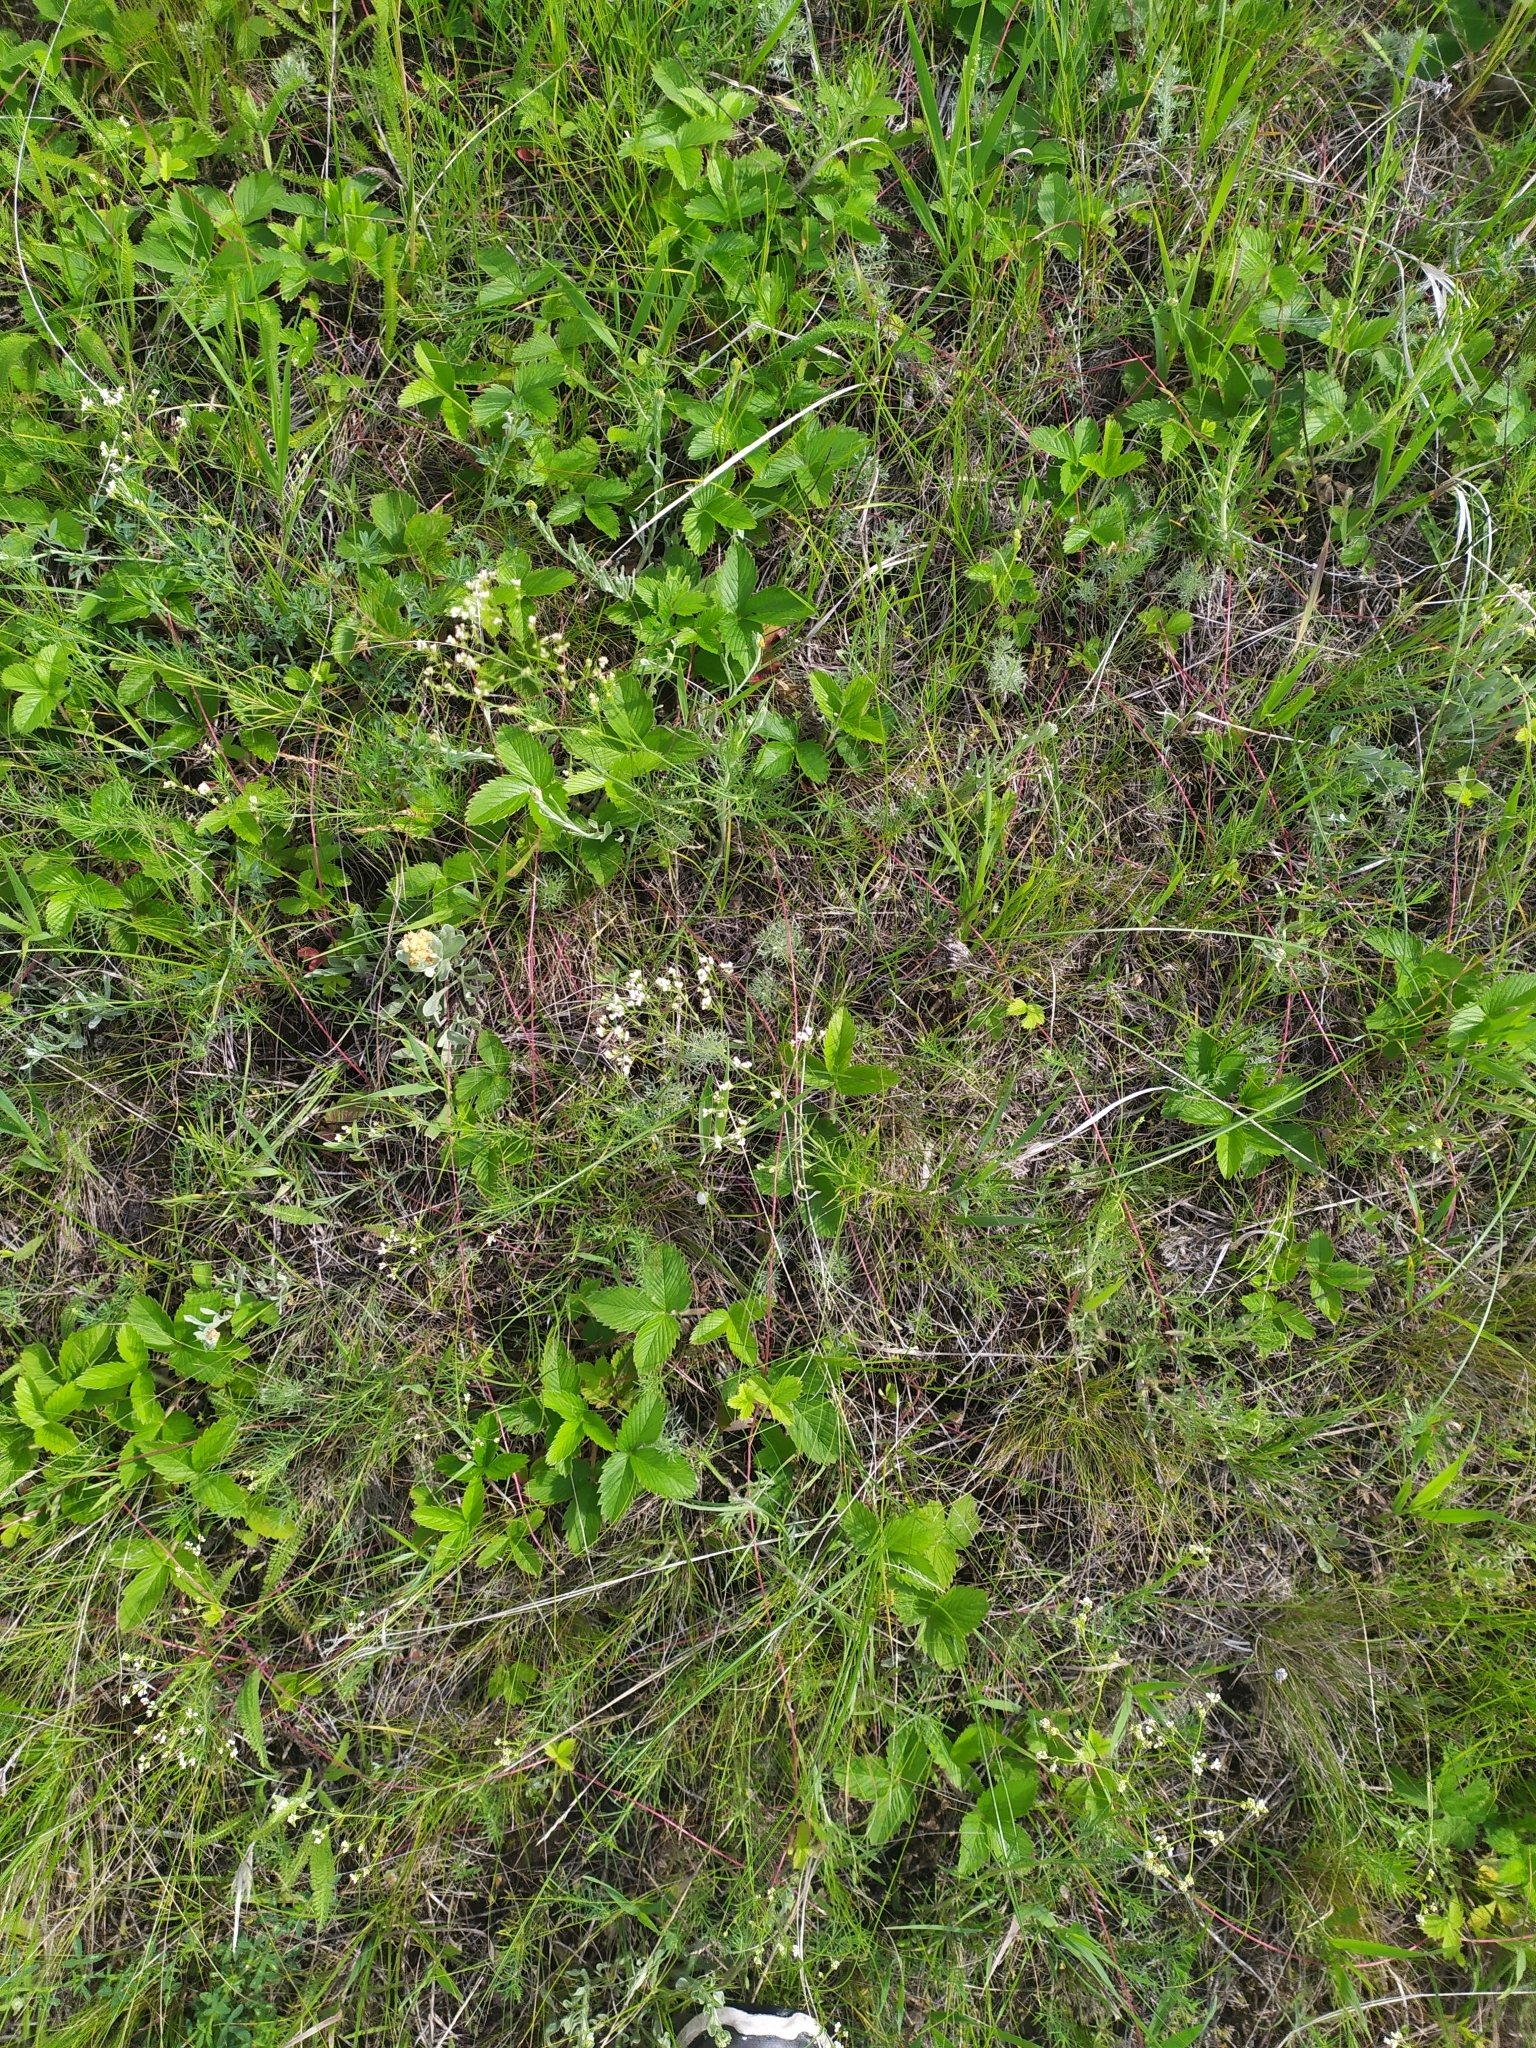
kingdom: Plantae
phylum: Tracheophyta
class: Magnoliopsida
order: Rosales
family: Rosaceae
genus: Fragaria
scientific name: Fragaria viridis
